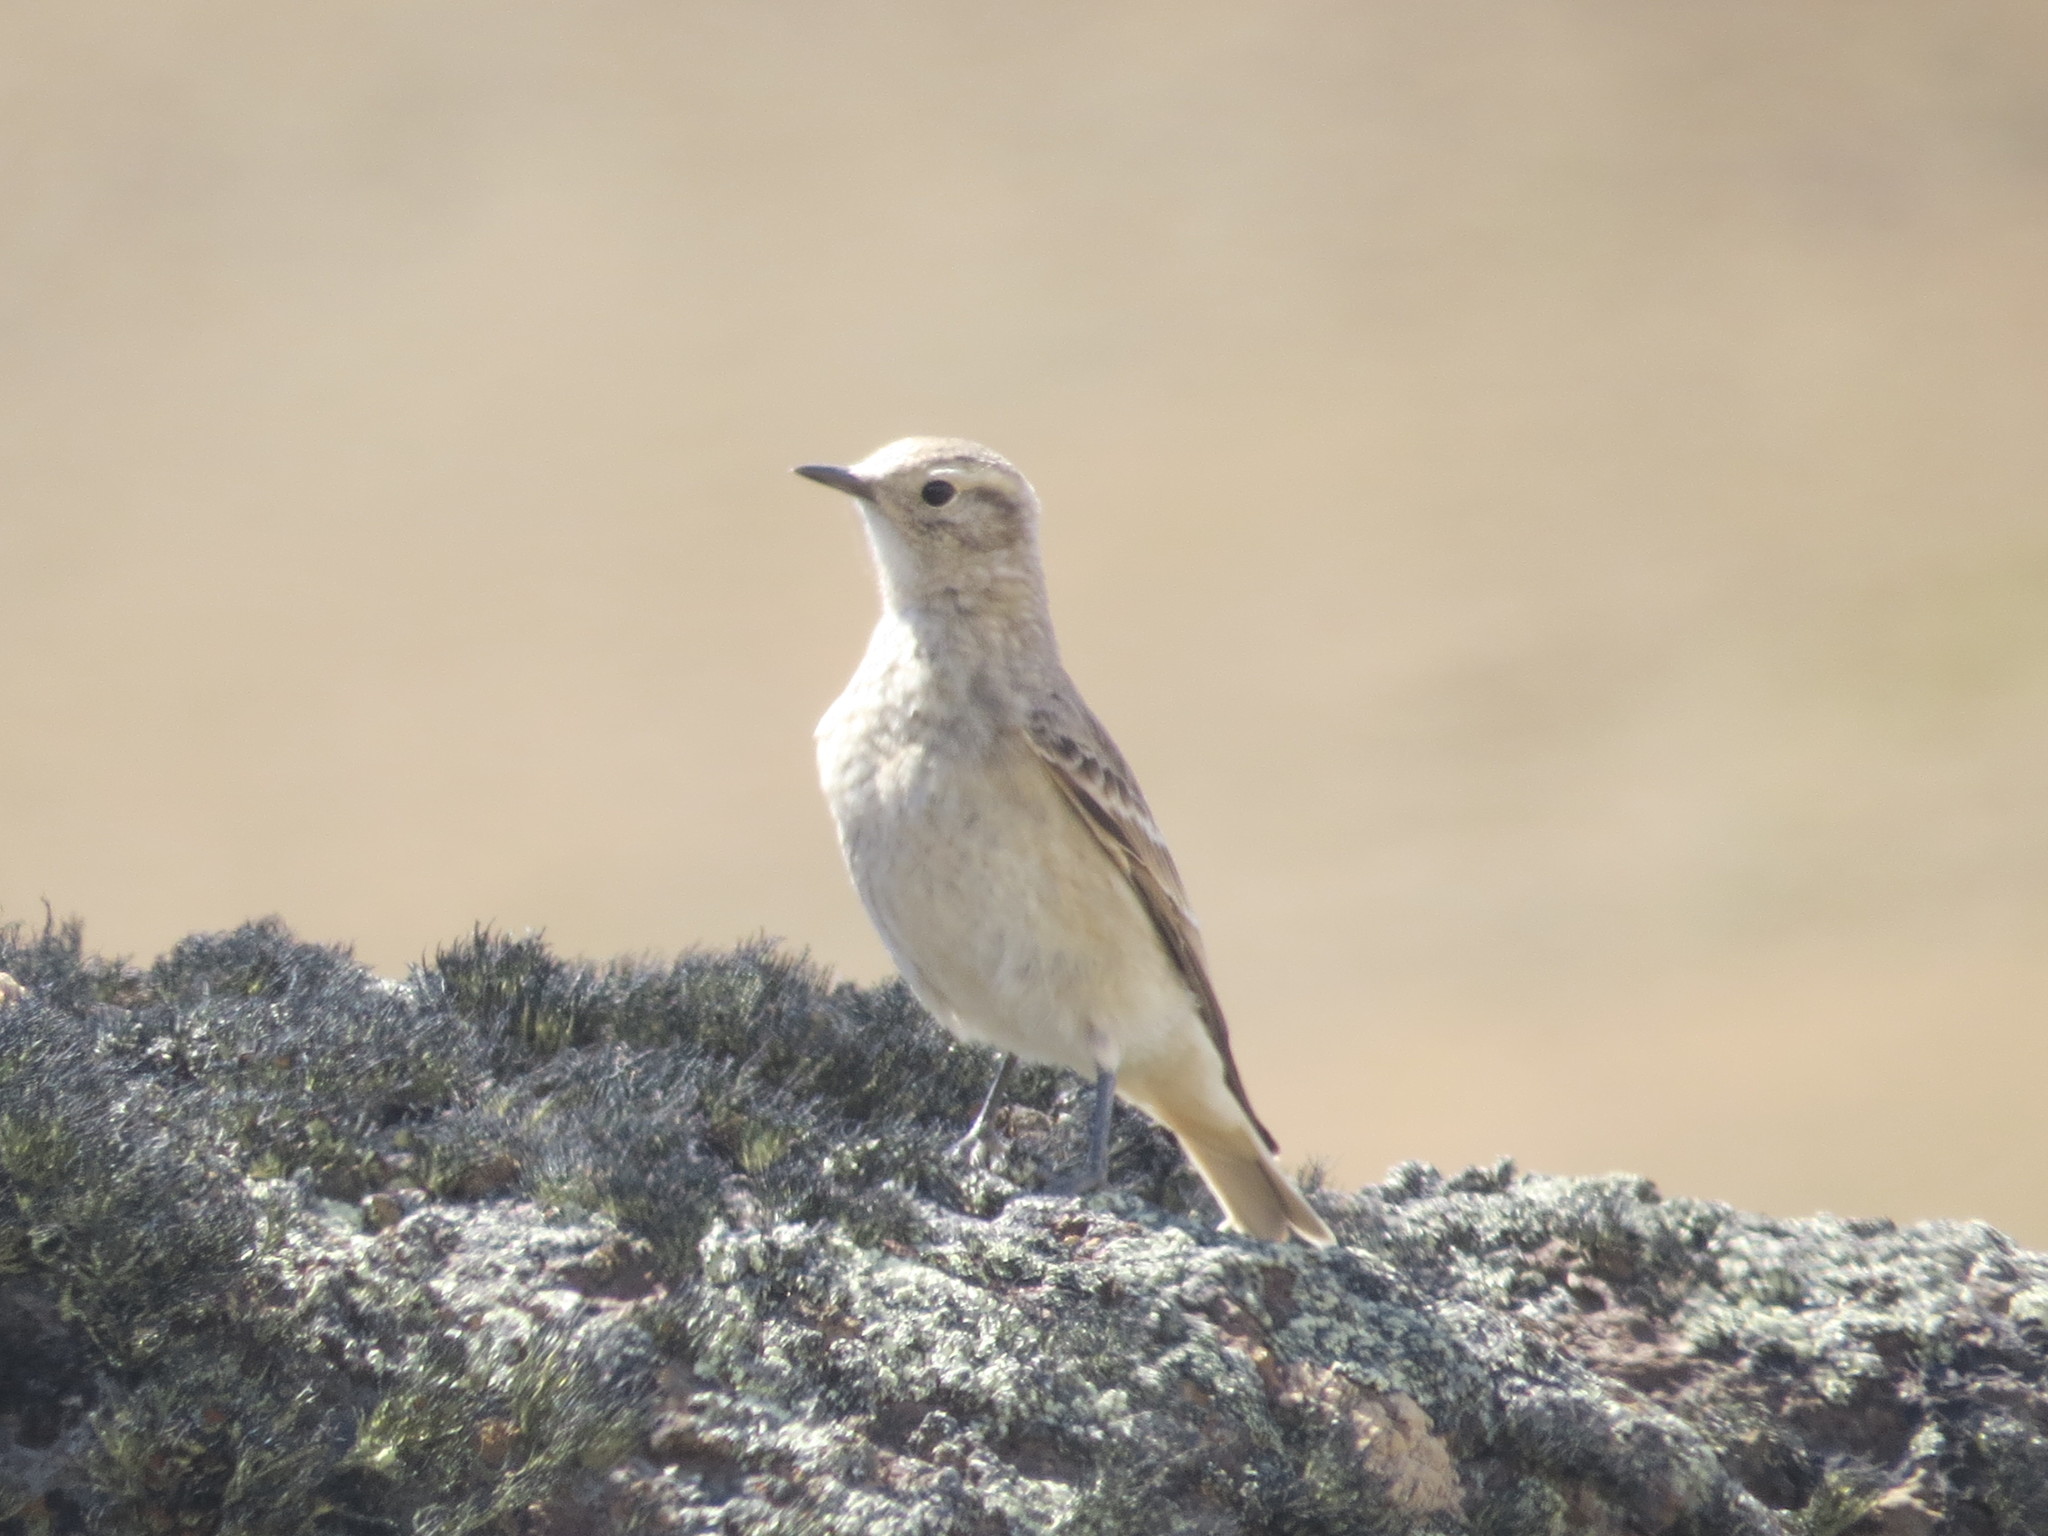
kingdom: Animalia
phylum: Chordata
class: Aves
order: Passeriformes
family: Furnariidae
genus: Geositta
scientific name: Geositta antarctica
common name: Short-billed miner
